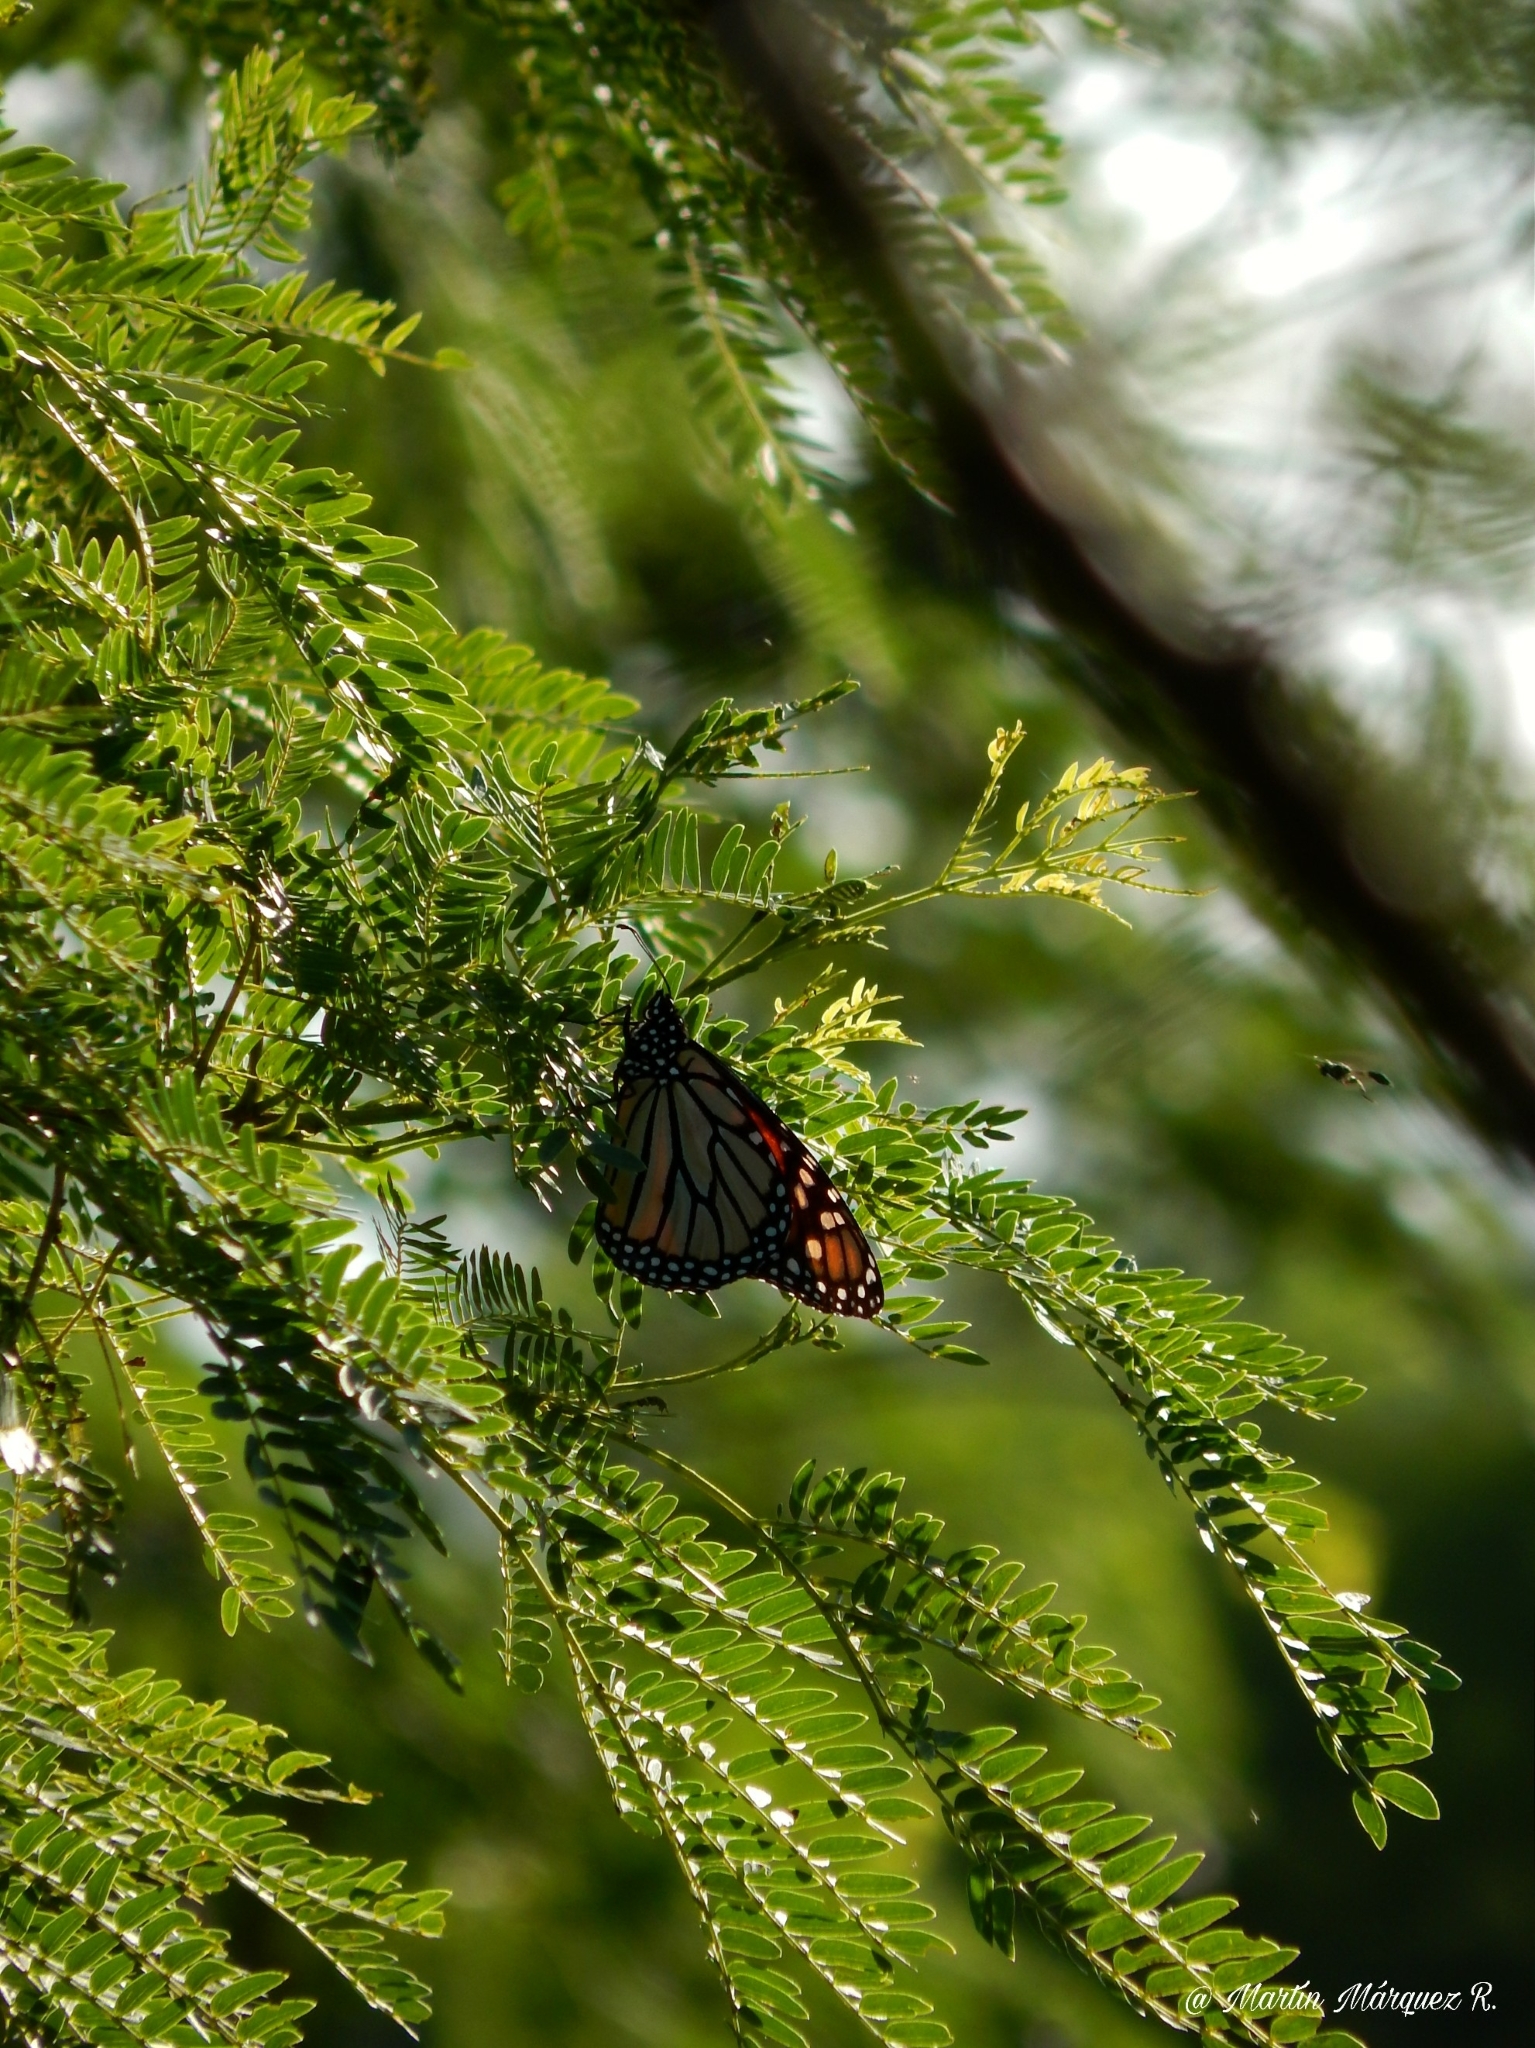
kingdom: Animalia
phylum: Arthropoda
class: Insecta
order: Lepidoptera
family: Nymphalidae
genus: Danaus
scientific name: Danaus plexippus
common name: Monarch
